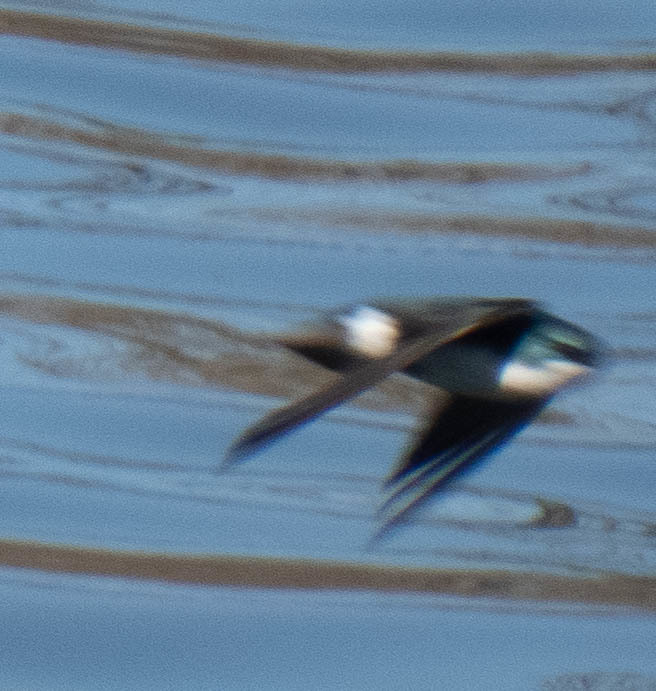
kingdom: Animalia
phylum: Chordata
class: Aves
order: Passeriformes
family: Hirundinidae
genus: Tachycineta
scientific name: Tachycineta bicolor
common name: Tree swallow
